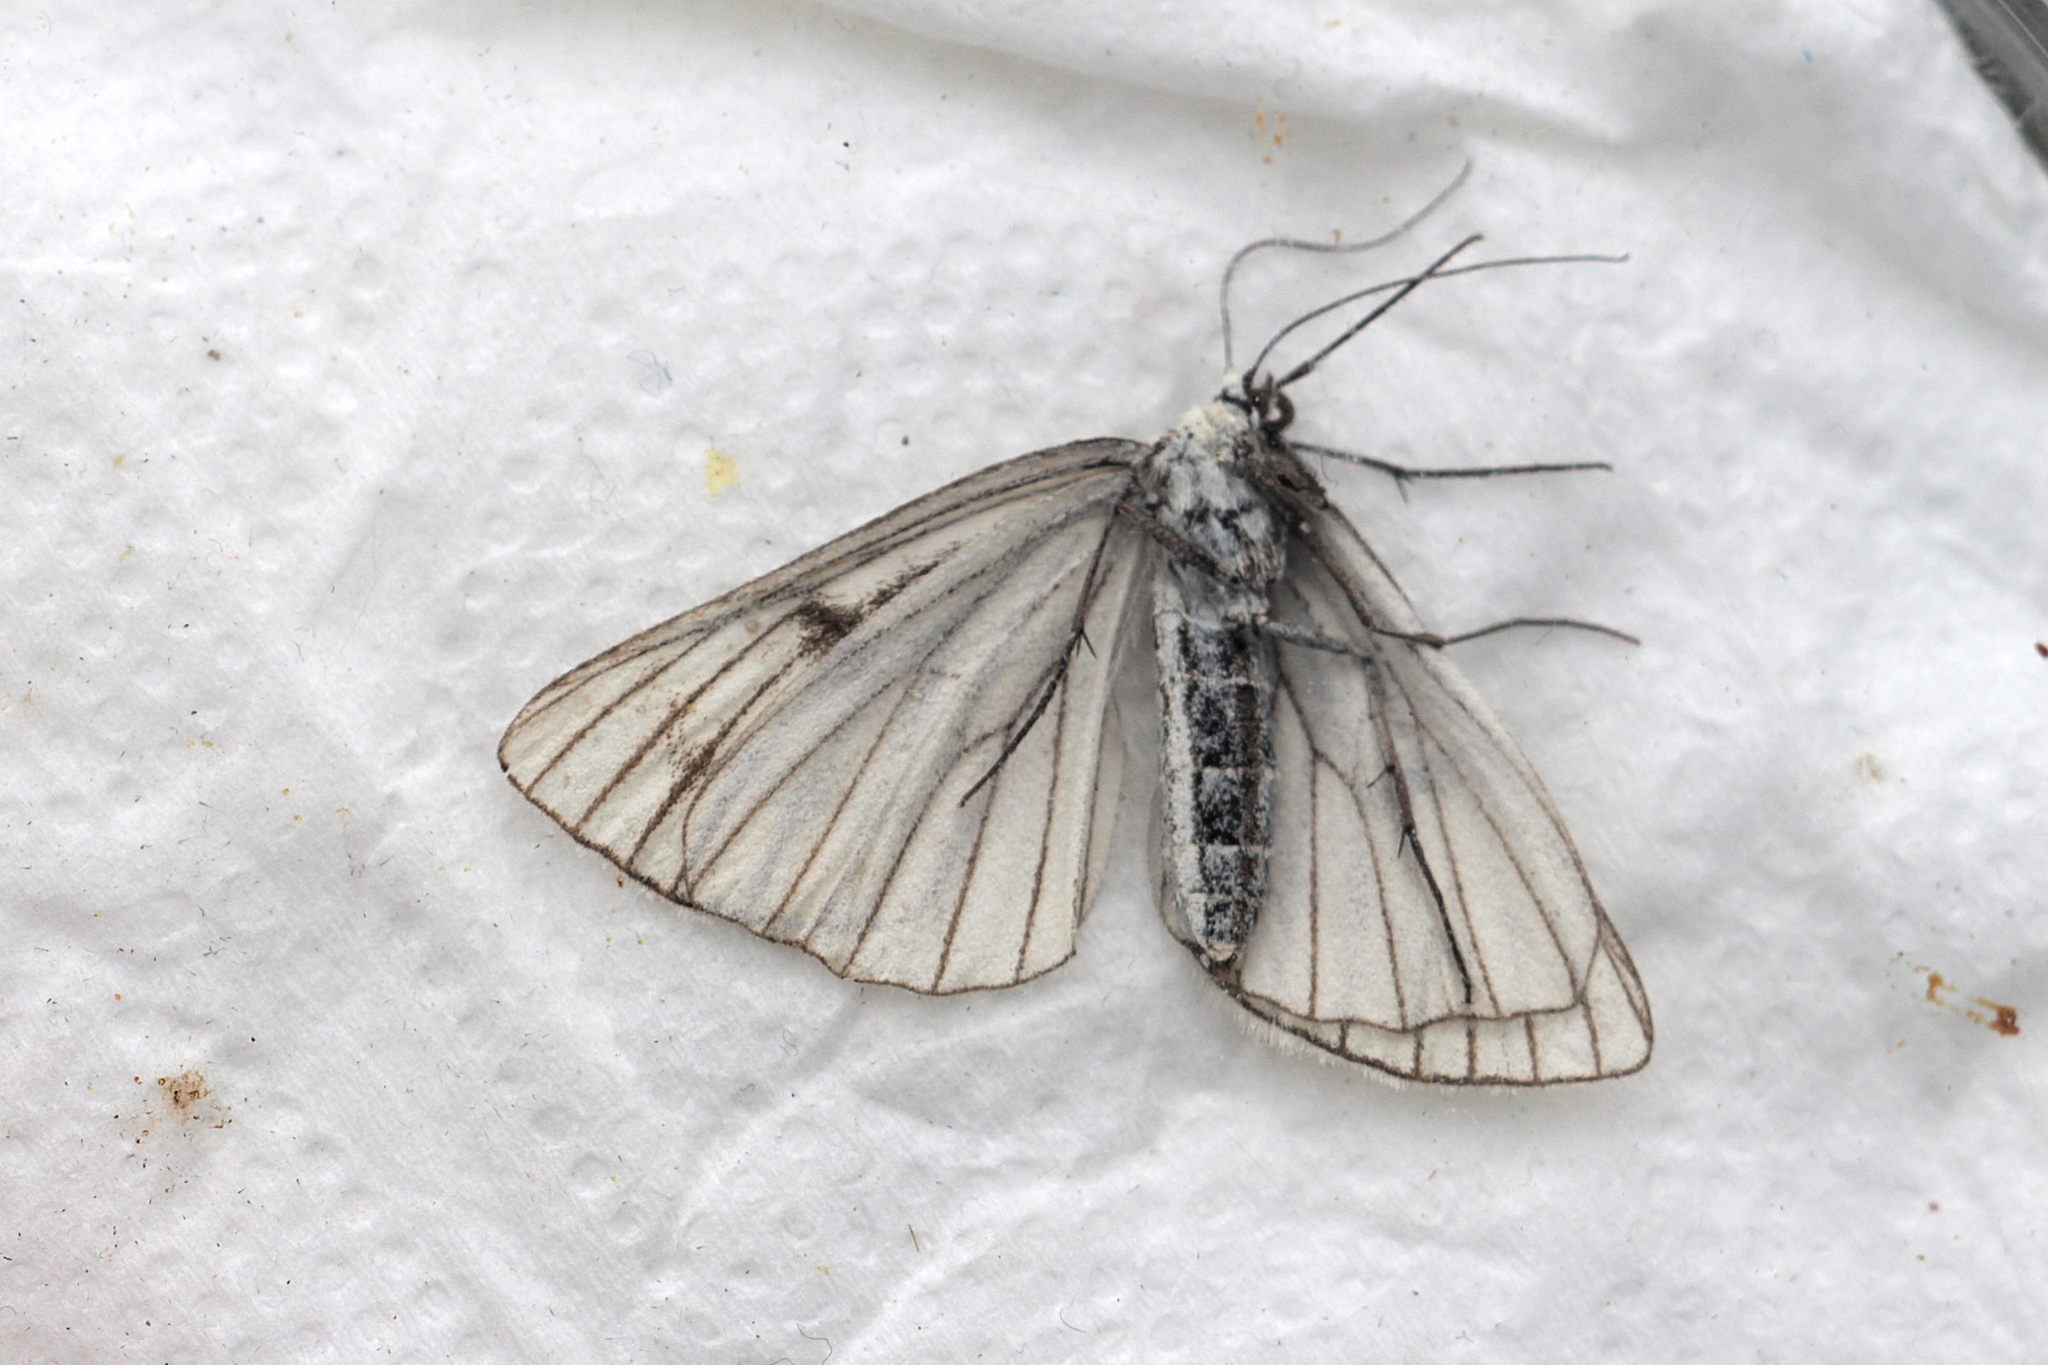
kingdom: Animalia
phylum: Arthropoda
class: Insecta
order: Lepidoptera
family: Geometridae
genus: Siona
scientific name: Siona lineata
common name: Black-veined moth
